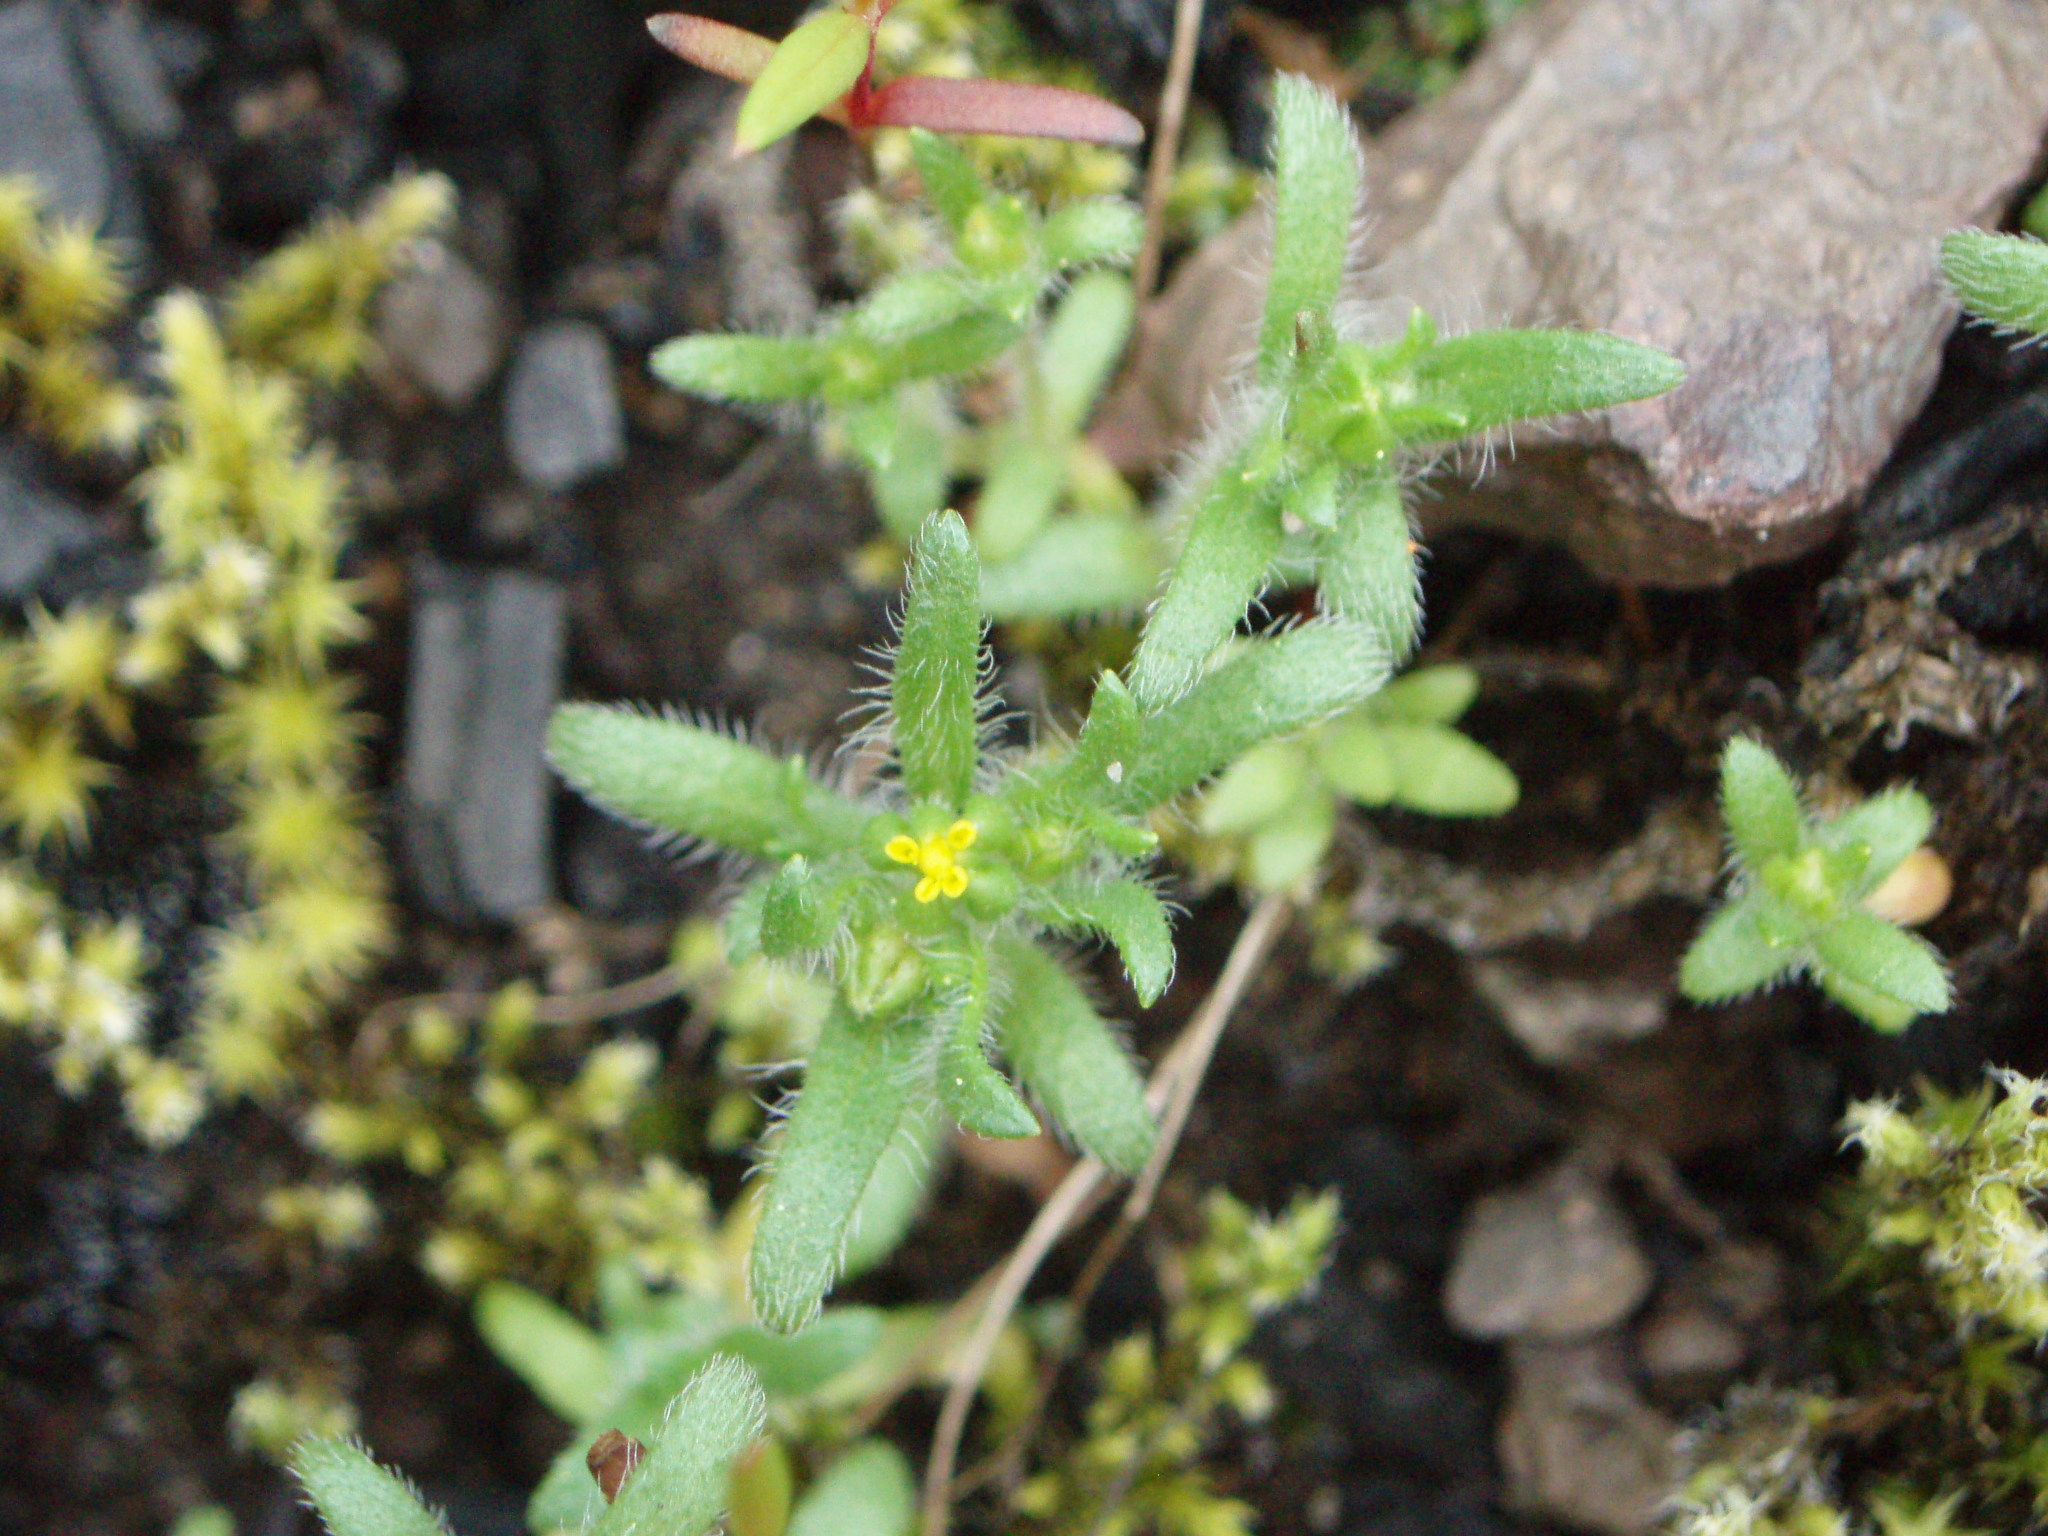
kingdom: Plantae
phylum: Tracheophyta
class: Magnoliopsida
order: Asterales
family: Asteraceae
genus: Hemizonella
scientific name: Hemizonella minima
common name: Opposite-leaved tarweed
